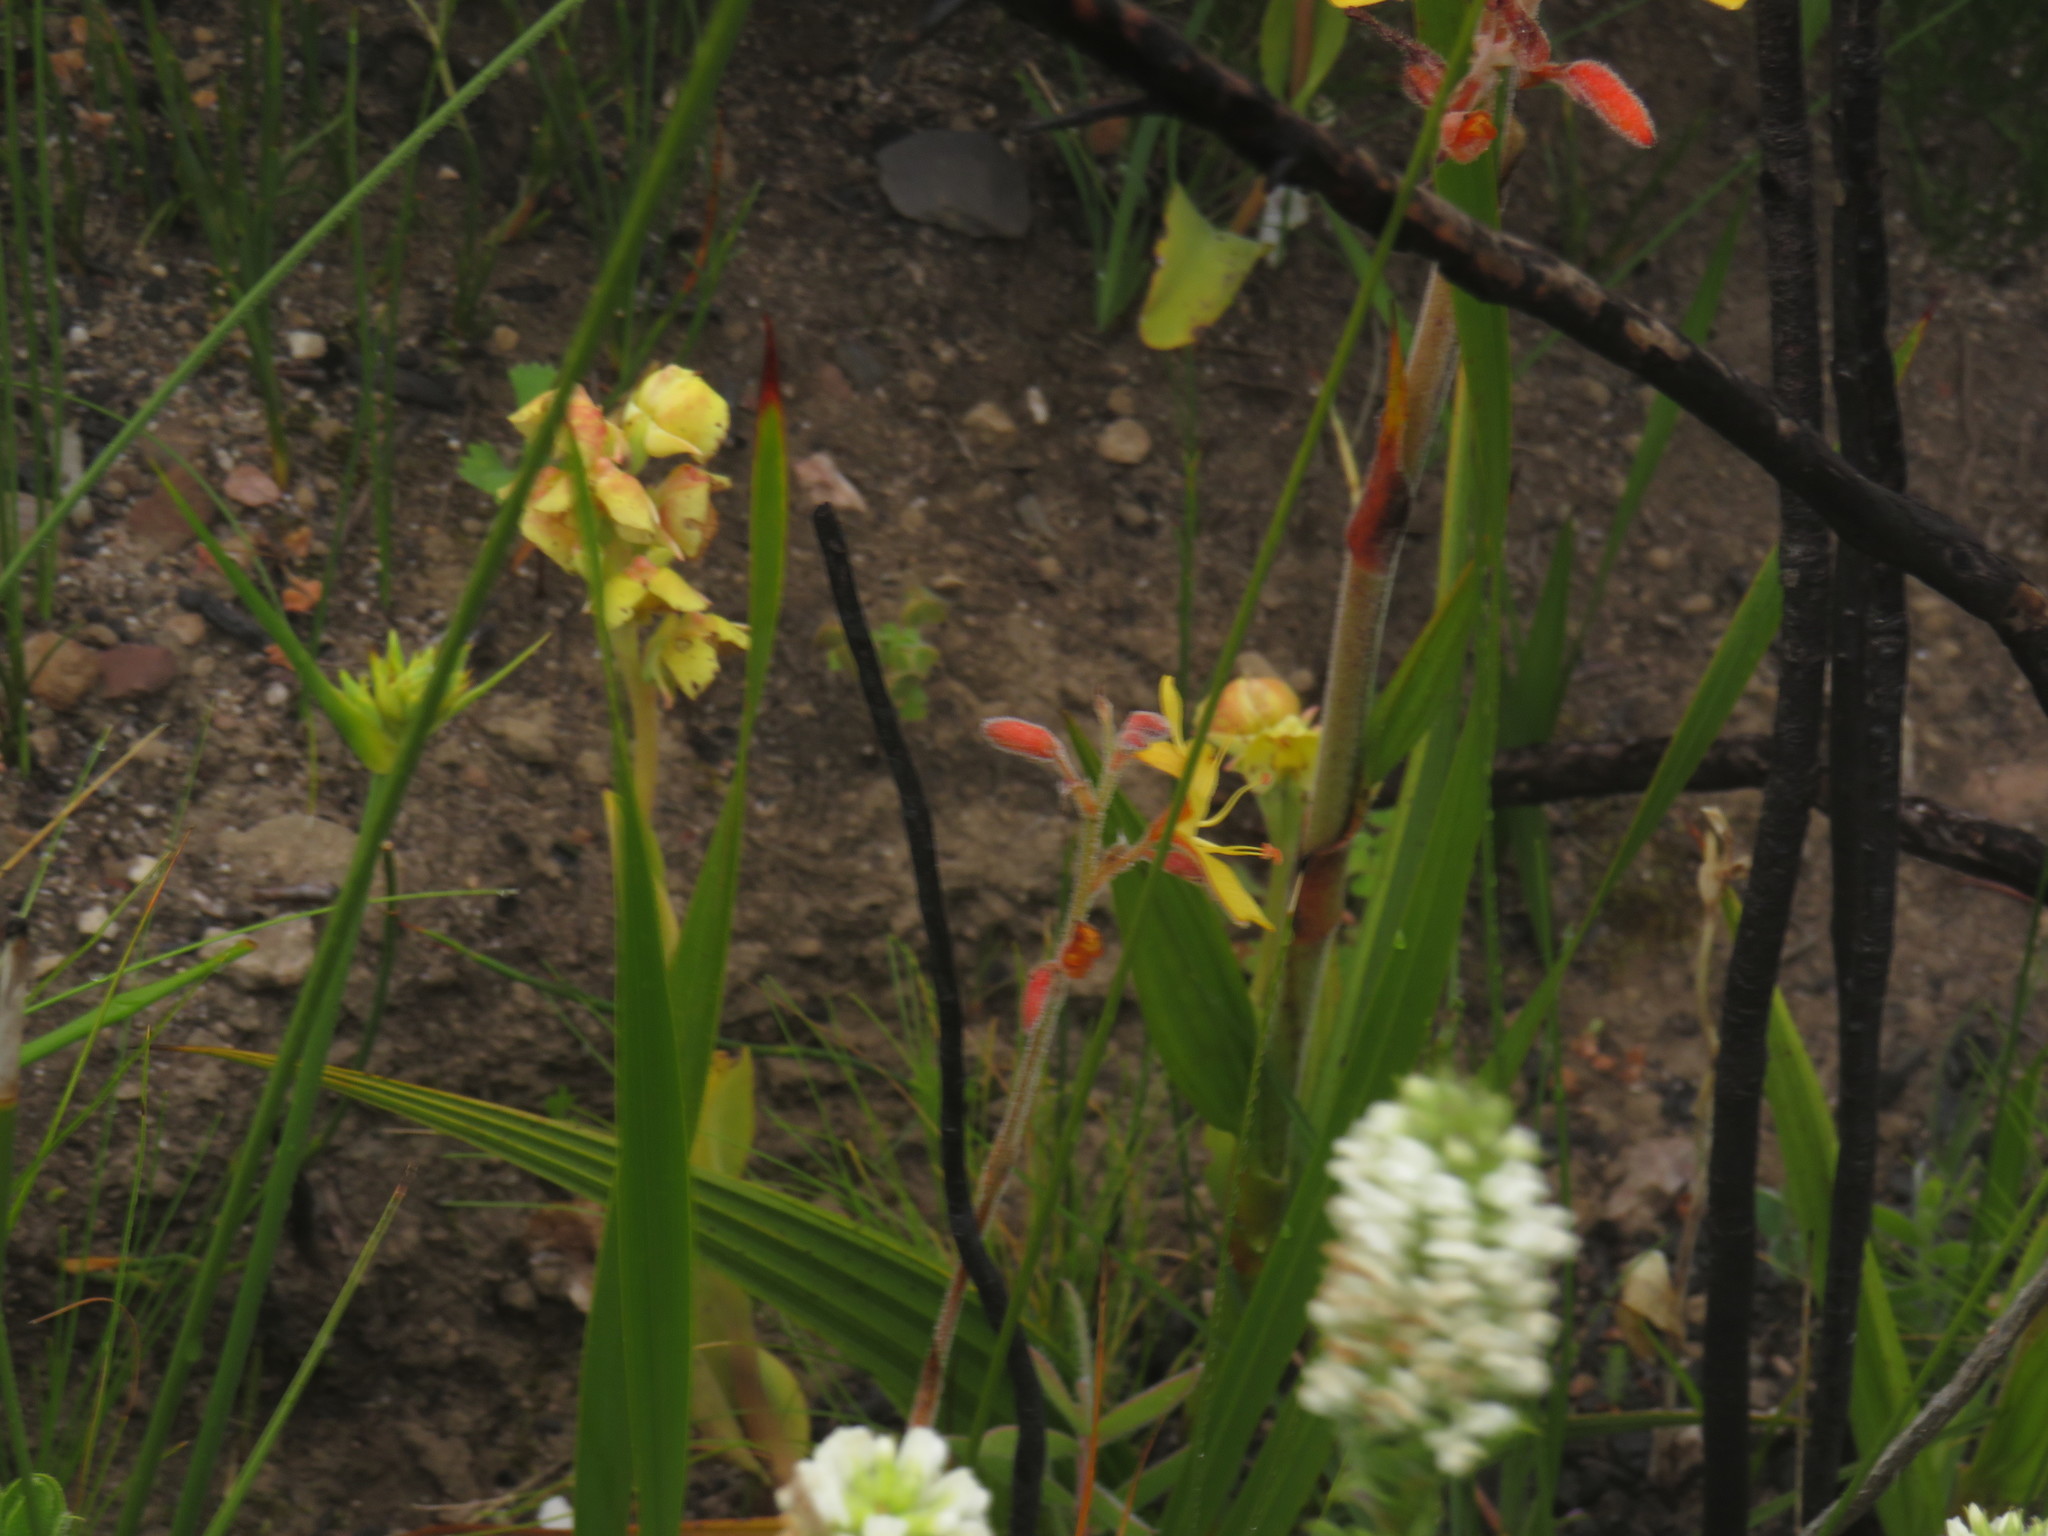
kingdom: Plantae
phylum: Tracheophyta
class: Liliopsida
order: Asparagales
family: Orchidaceae
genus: Pterygodium
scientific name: Pterygodium catholicum
